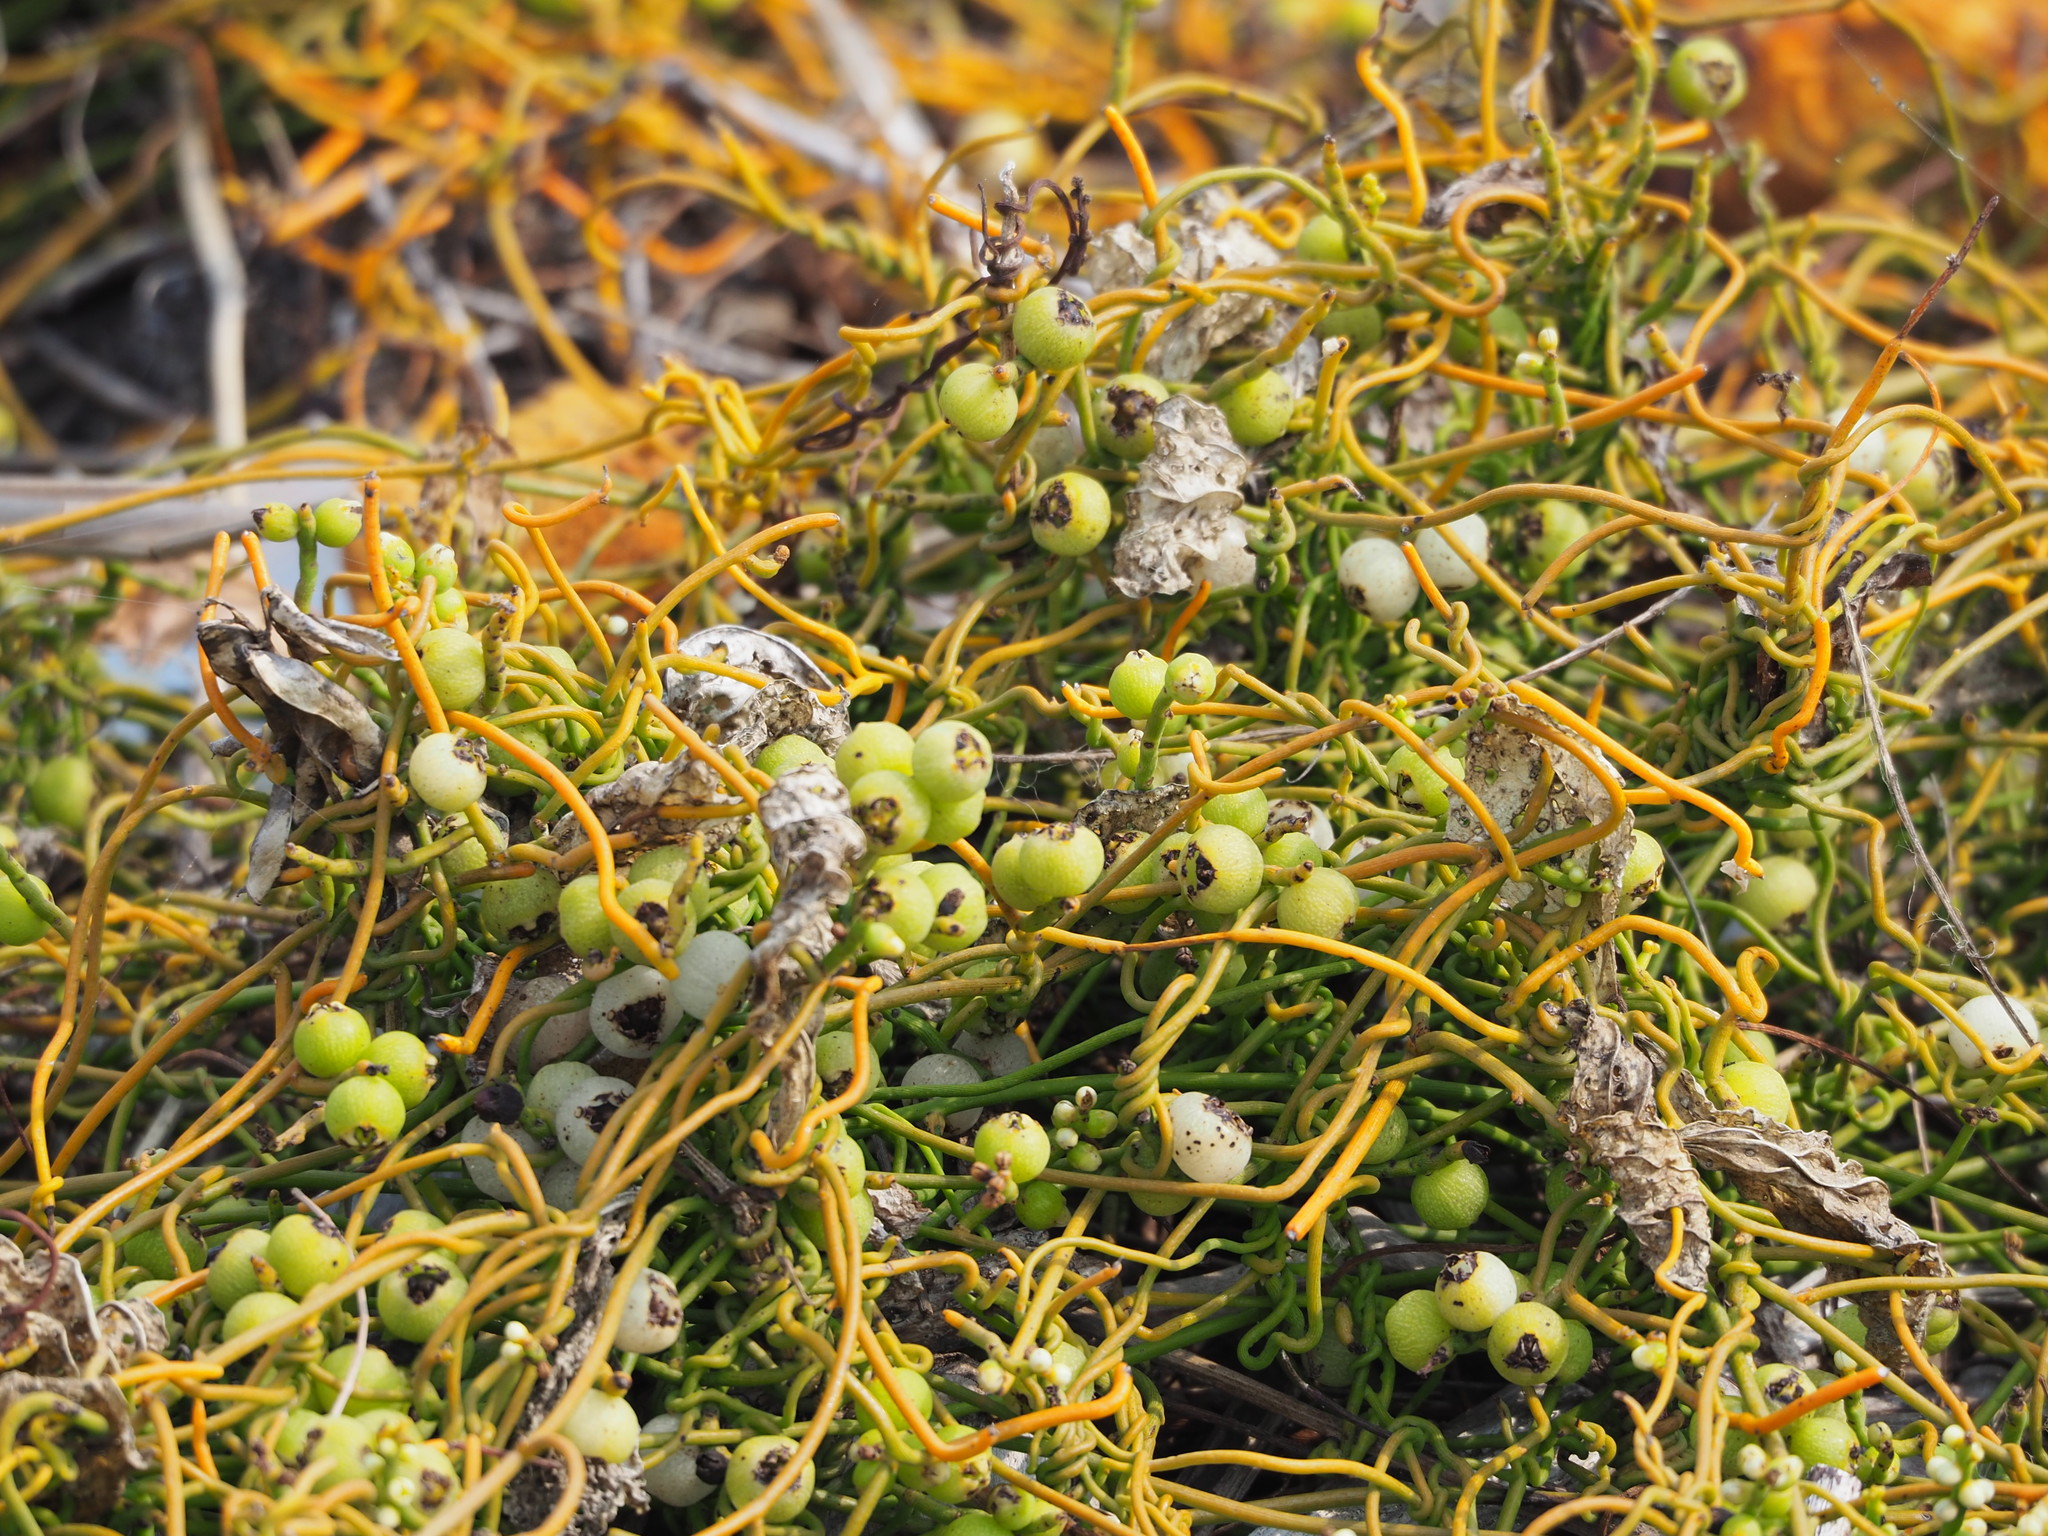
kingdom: Plantae
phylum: Tracheophyta
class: Magnoliopsida
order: Laurales
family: Lauraceae
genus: Cassytha
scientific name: Cassytha filiformis
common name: Dodder-laurel
